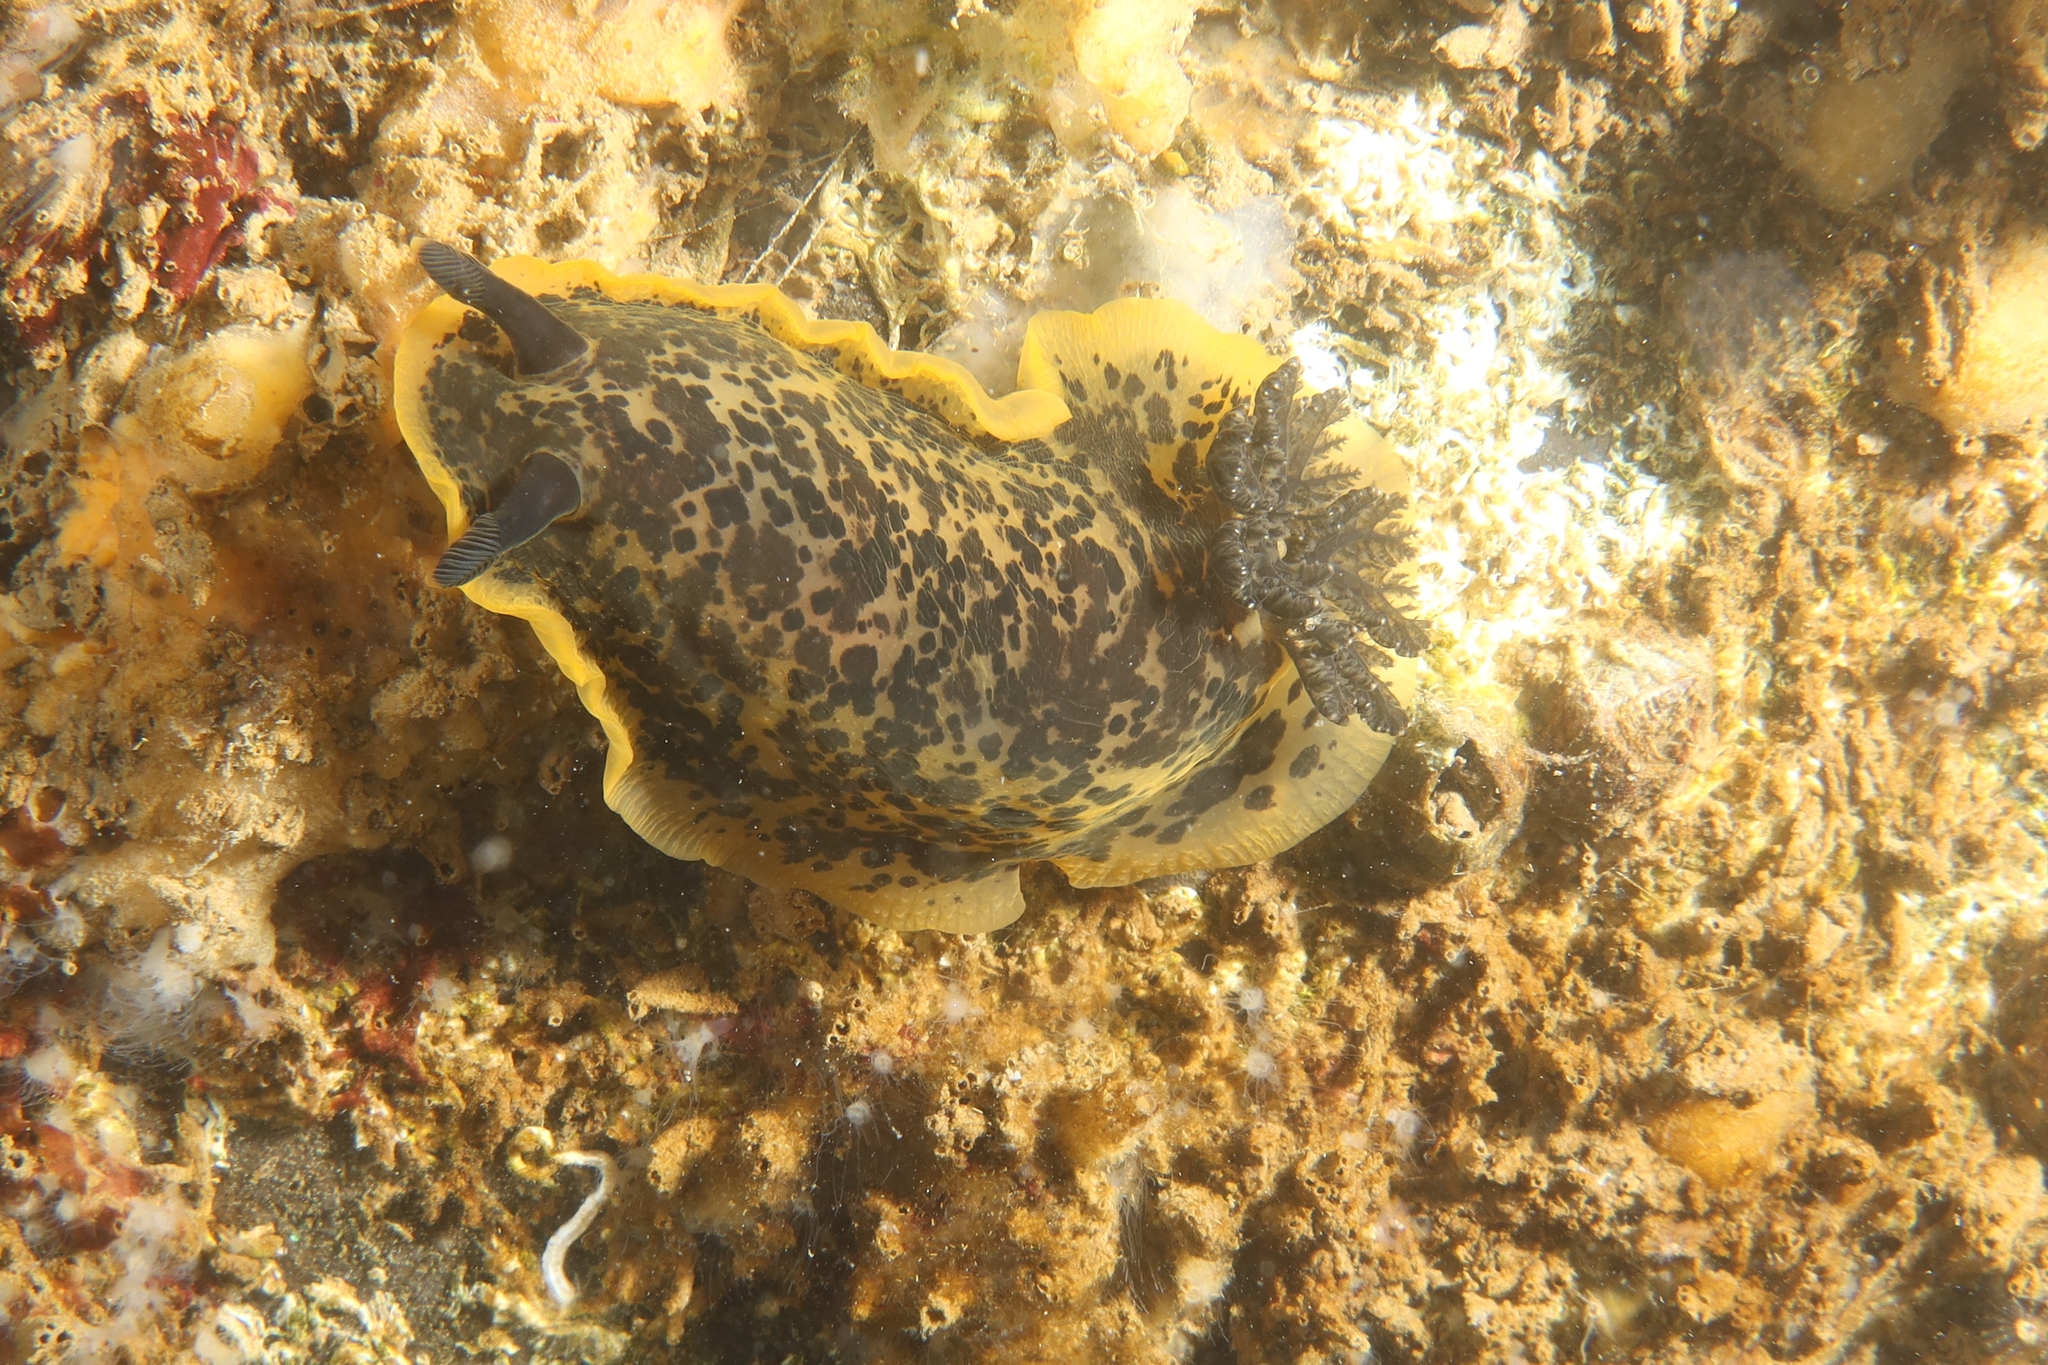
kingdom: Animalia
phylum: Mollusca
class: Gastropoda
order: Nudibranchia
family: Dendrodorididae
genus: Dendrodoris
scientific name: Dendrodoris limbata
